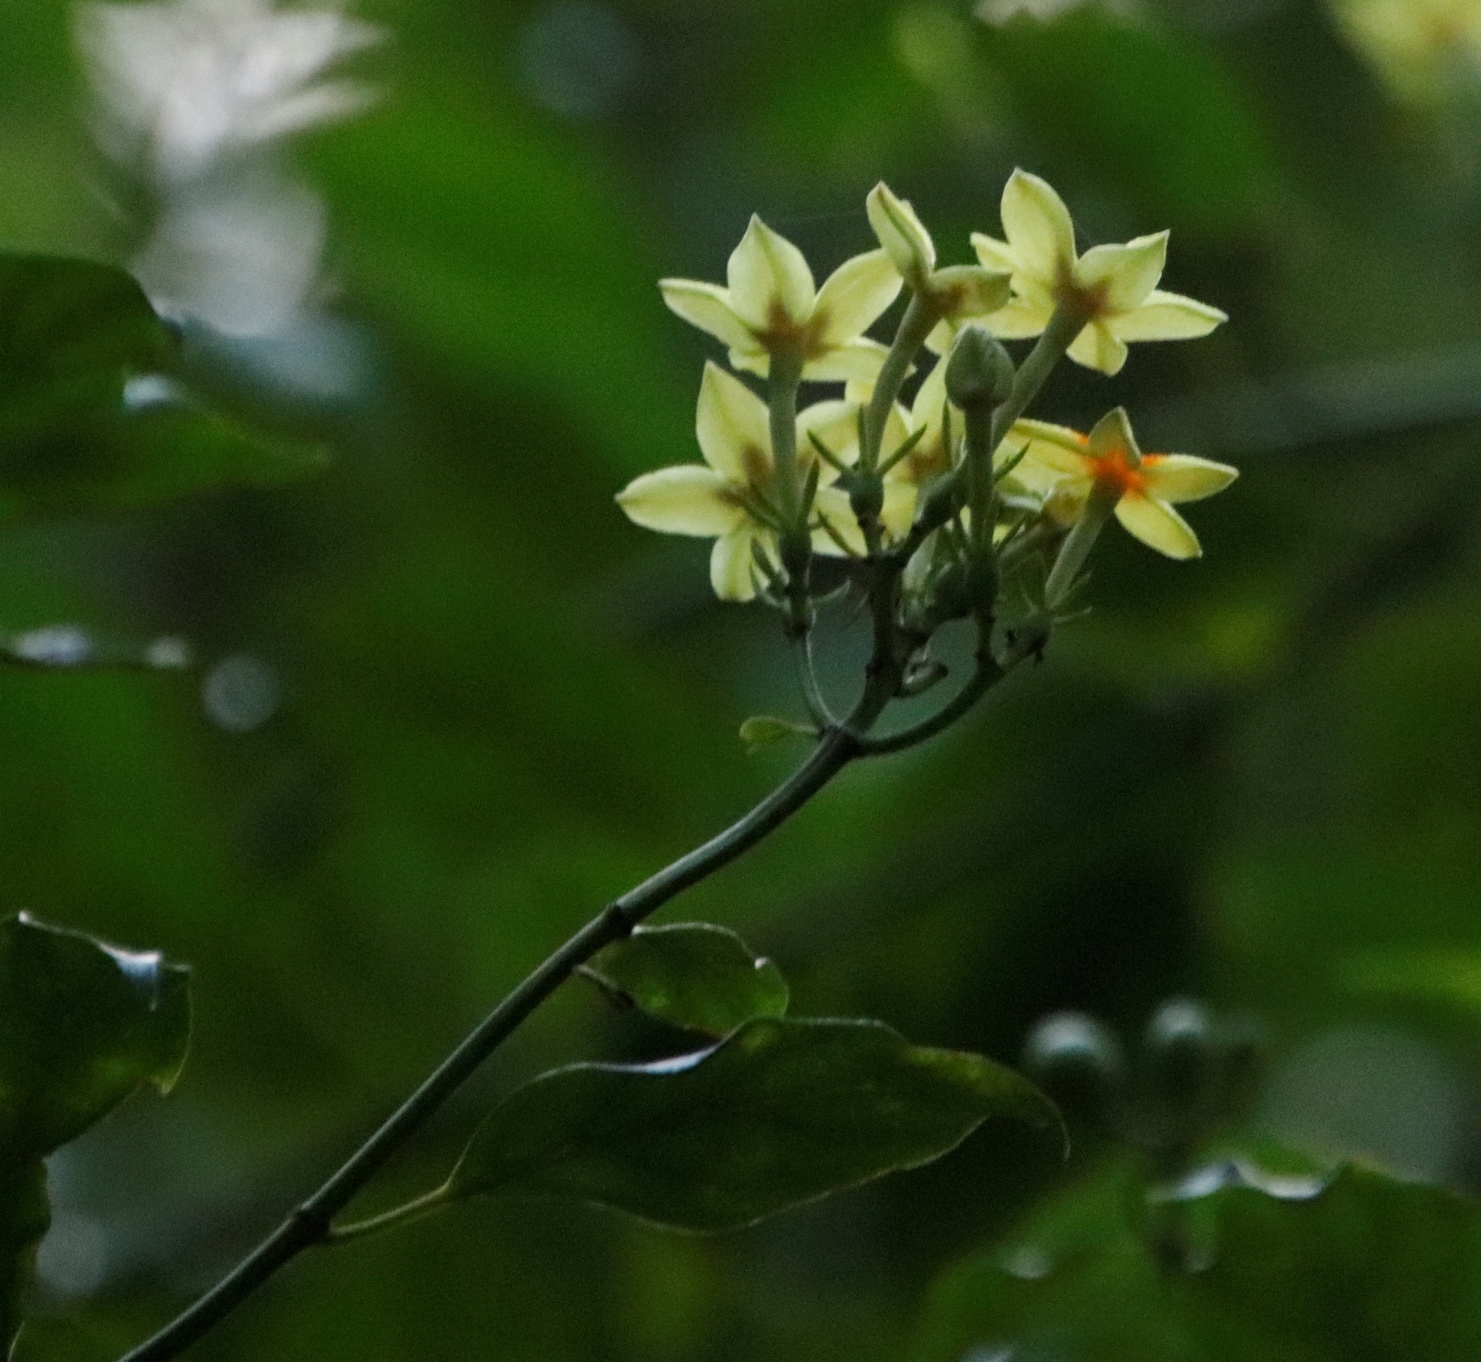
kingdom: Plantae
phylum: Tracheophyta
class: Magnoliopsida
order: Gentianales
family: Rubiaceae
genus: Mussaenda
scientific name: Mussaenda arcuata
